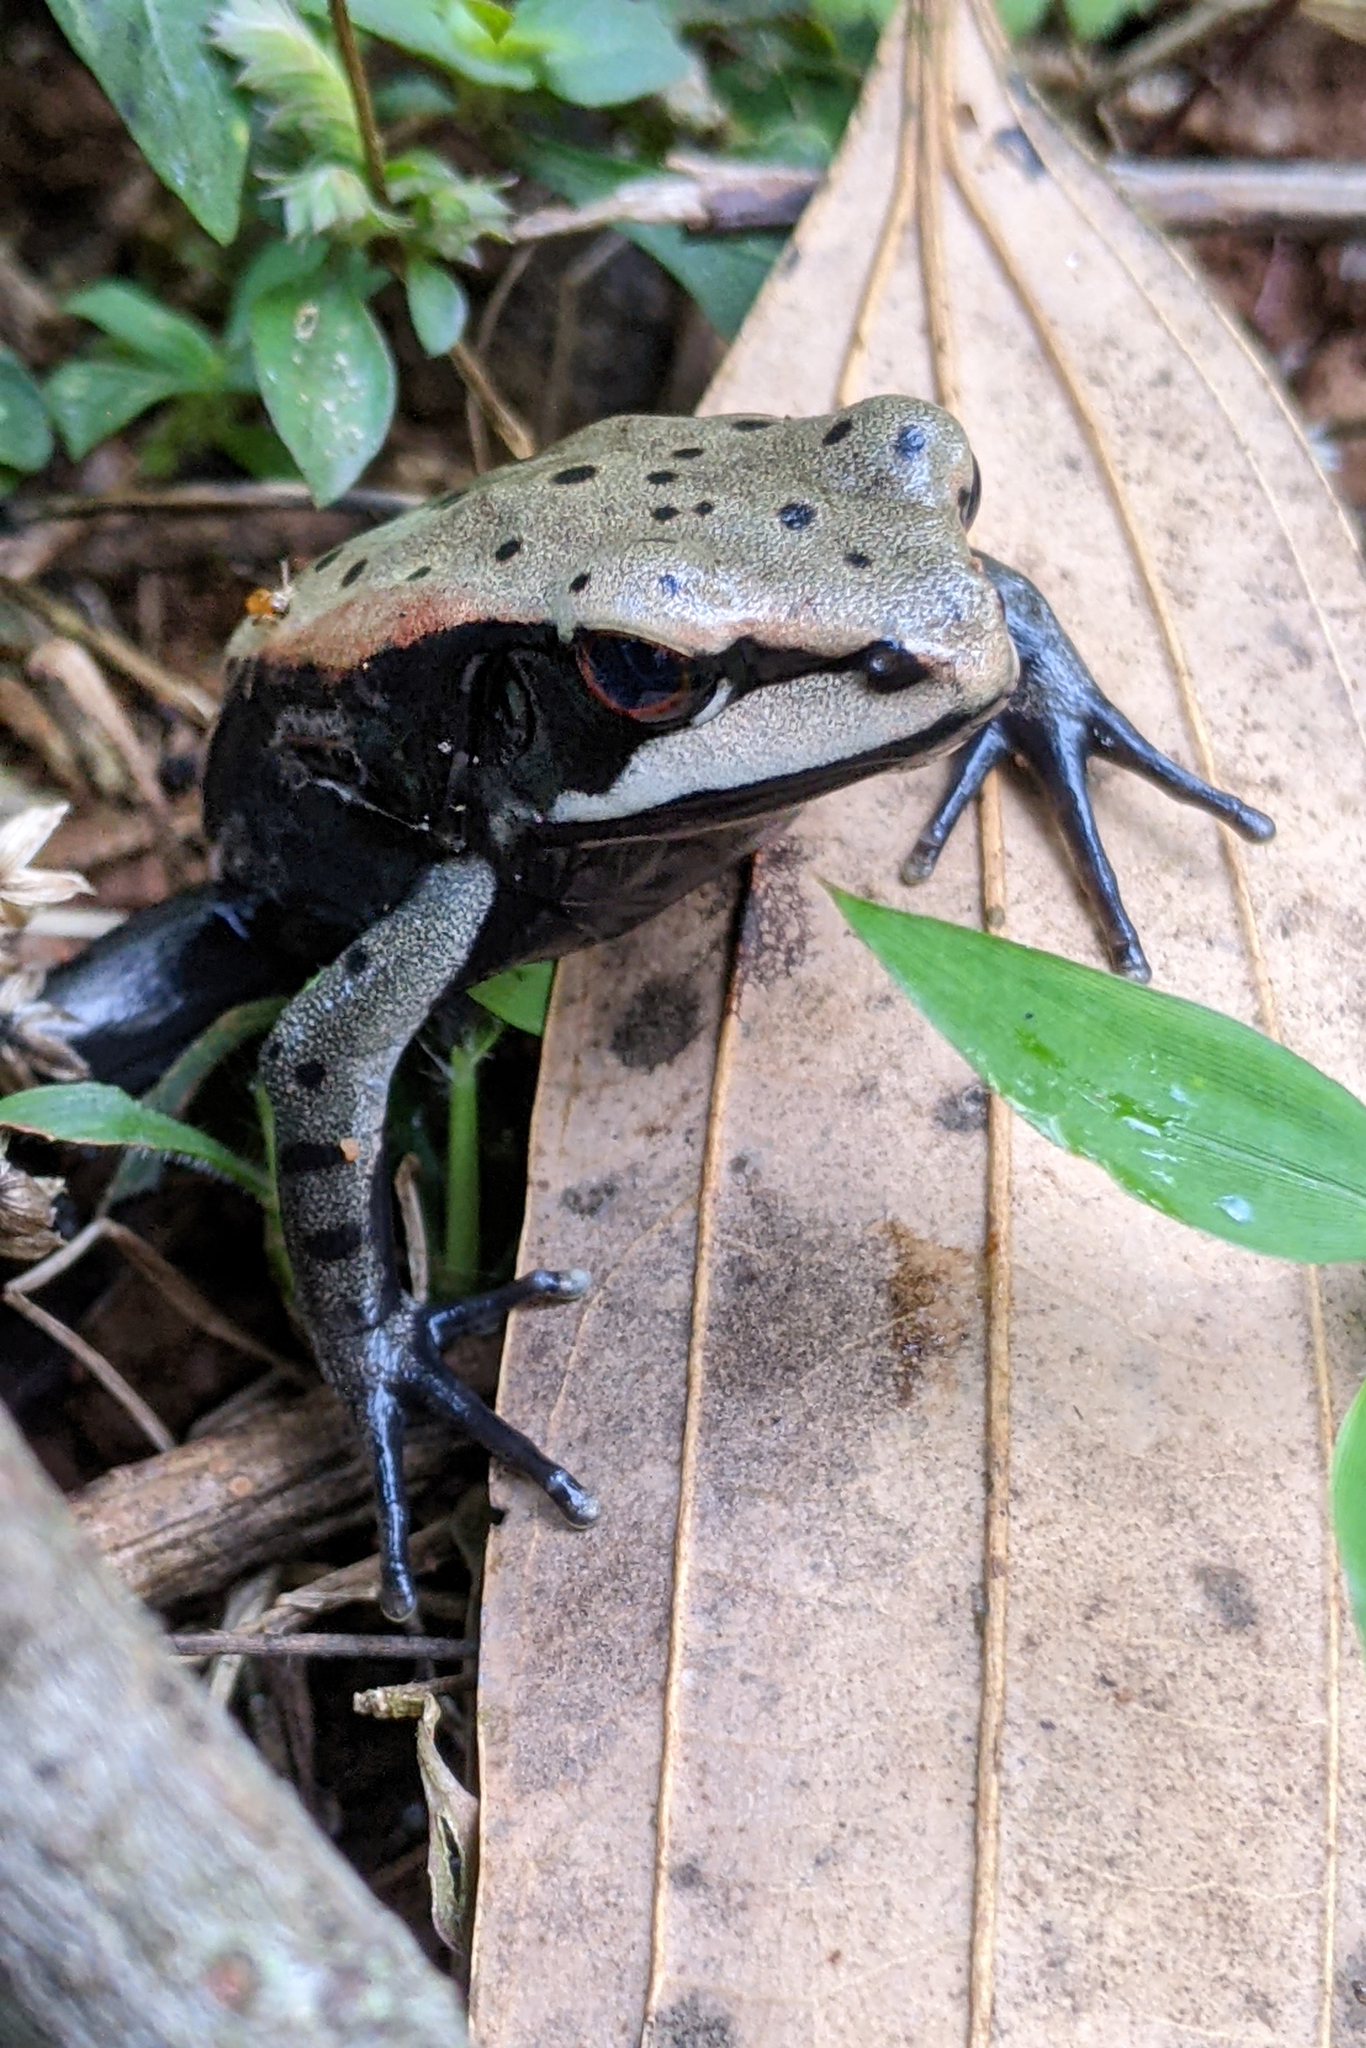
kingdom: Animalia
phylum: Chordata
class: Amphibia
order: Anura
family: Ranidae
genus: Clinotarsus
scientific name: Clinotarsus curtipes
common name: Bicoloured frog
